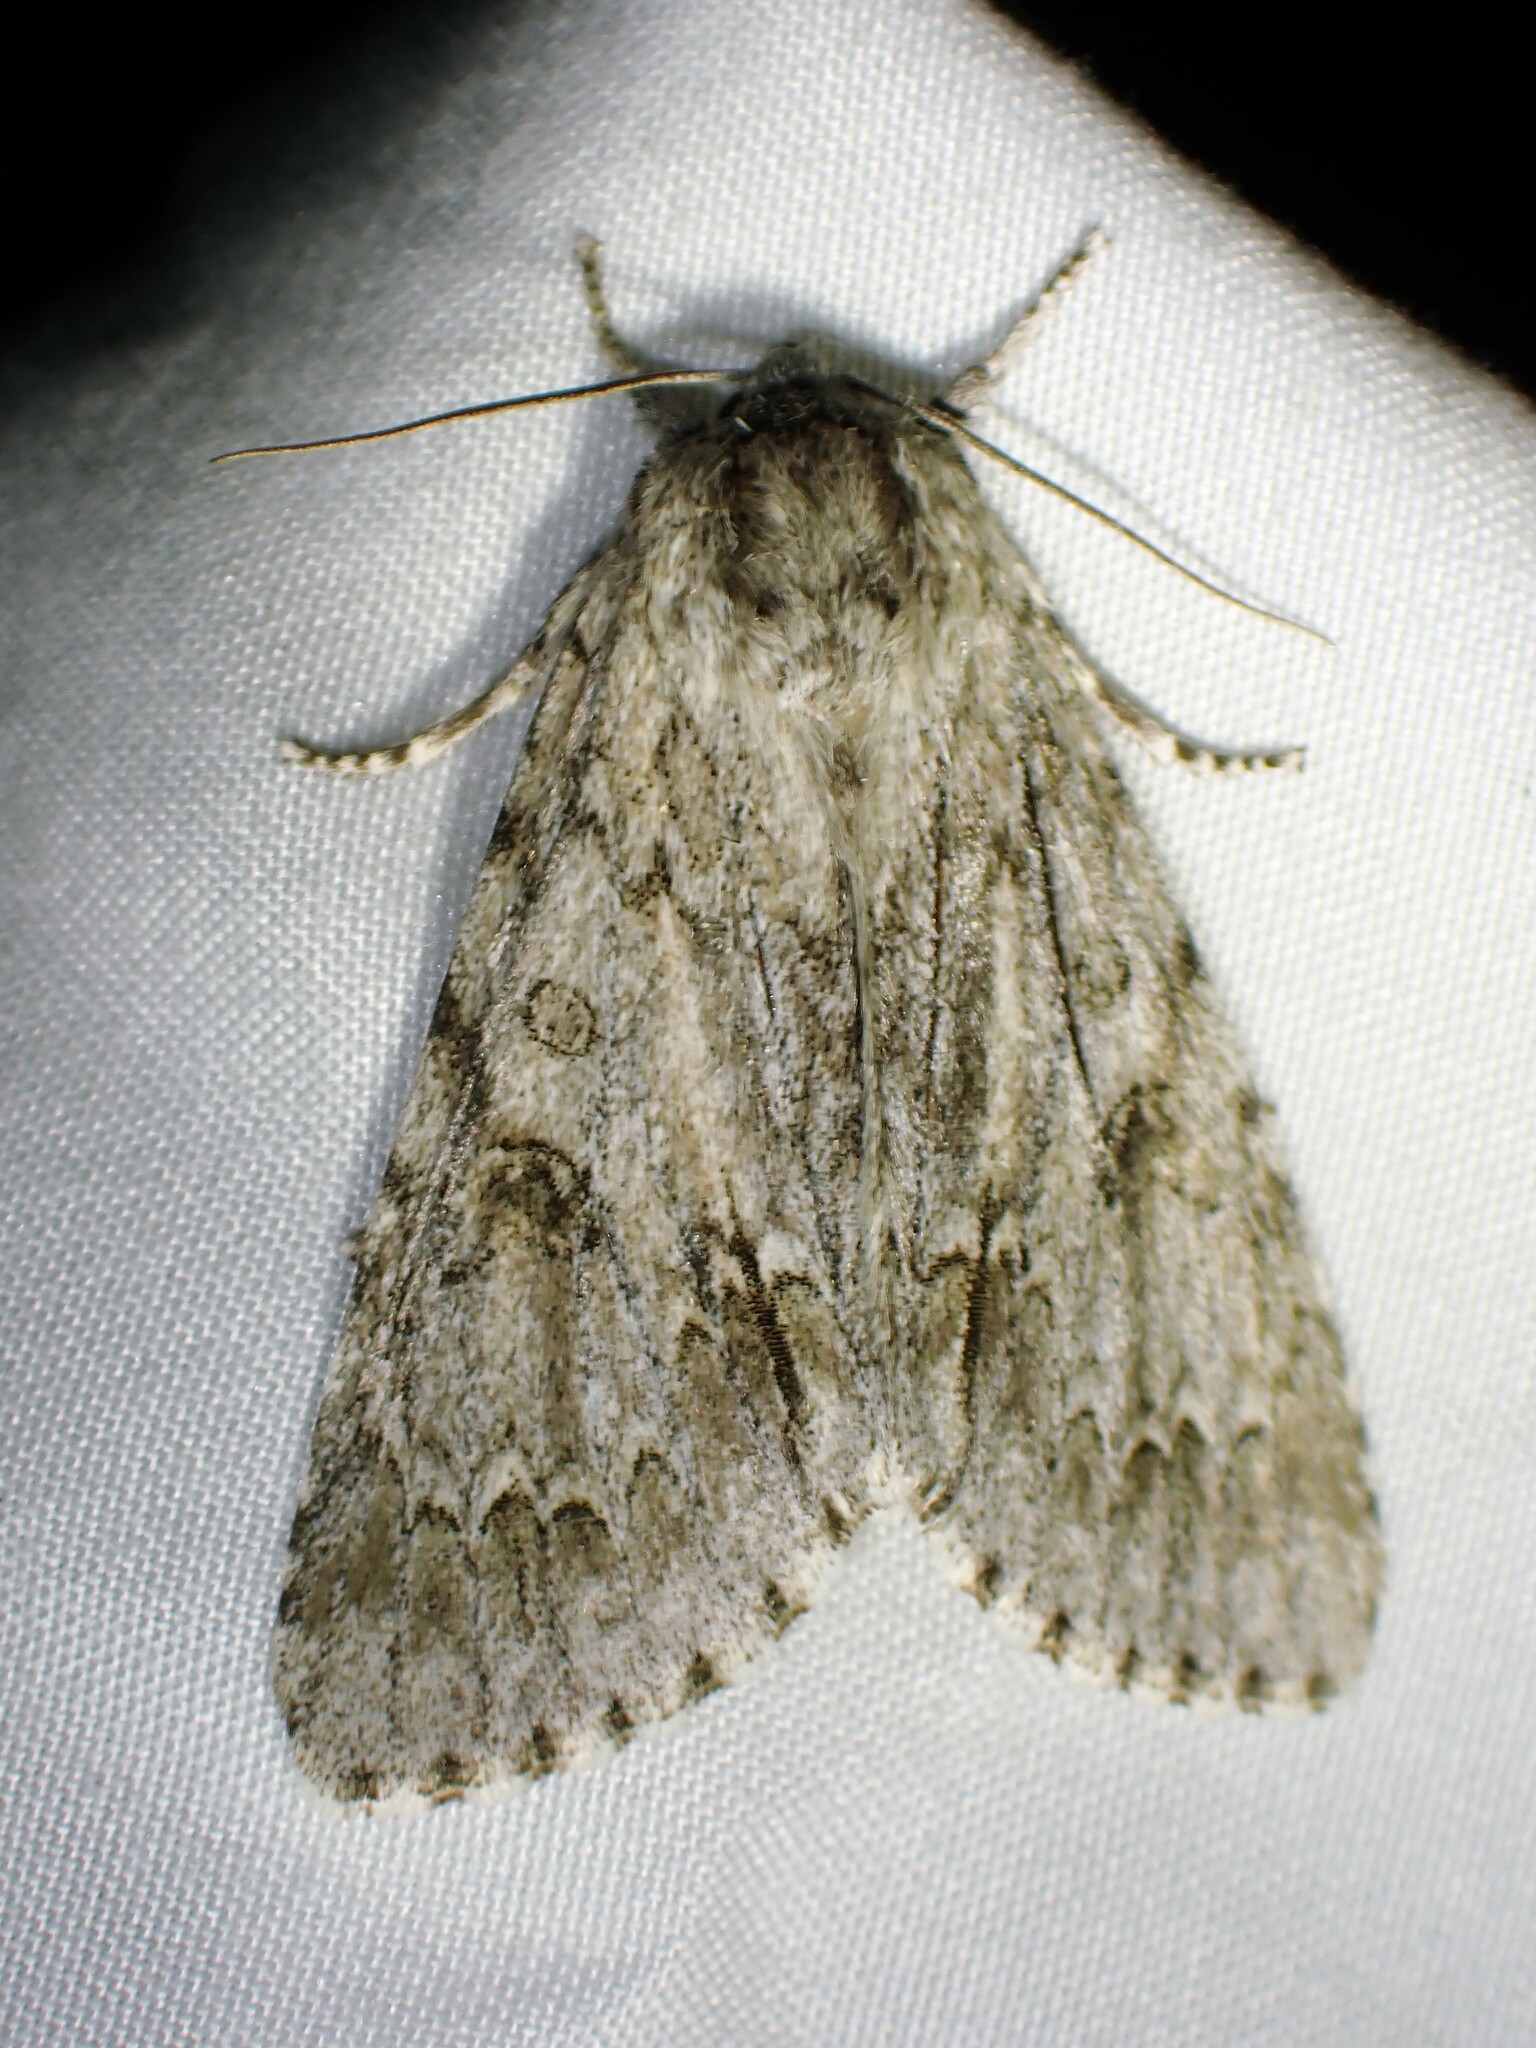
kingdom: Animalia
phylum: Arthropoda
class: Insecta
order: Lepidoptera
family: Noctuidae
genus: Acronicta
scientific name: Acronicta americana
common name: American dagger
